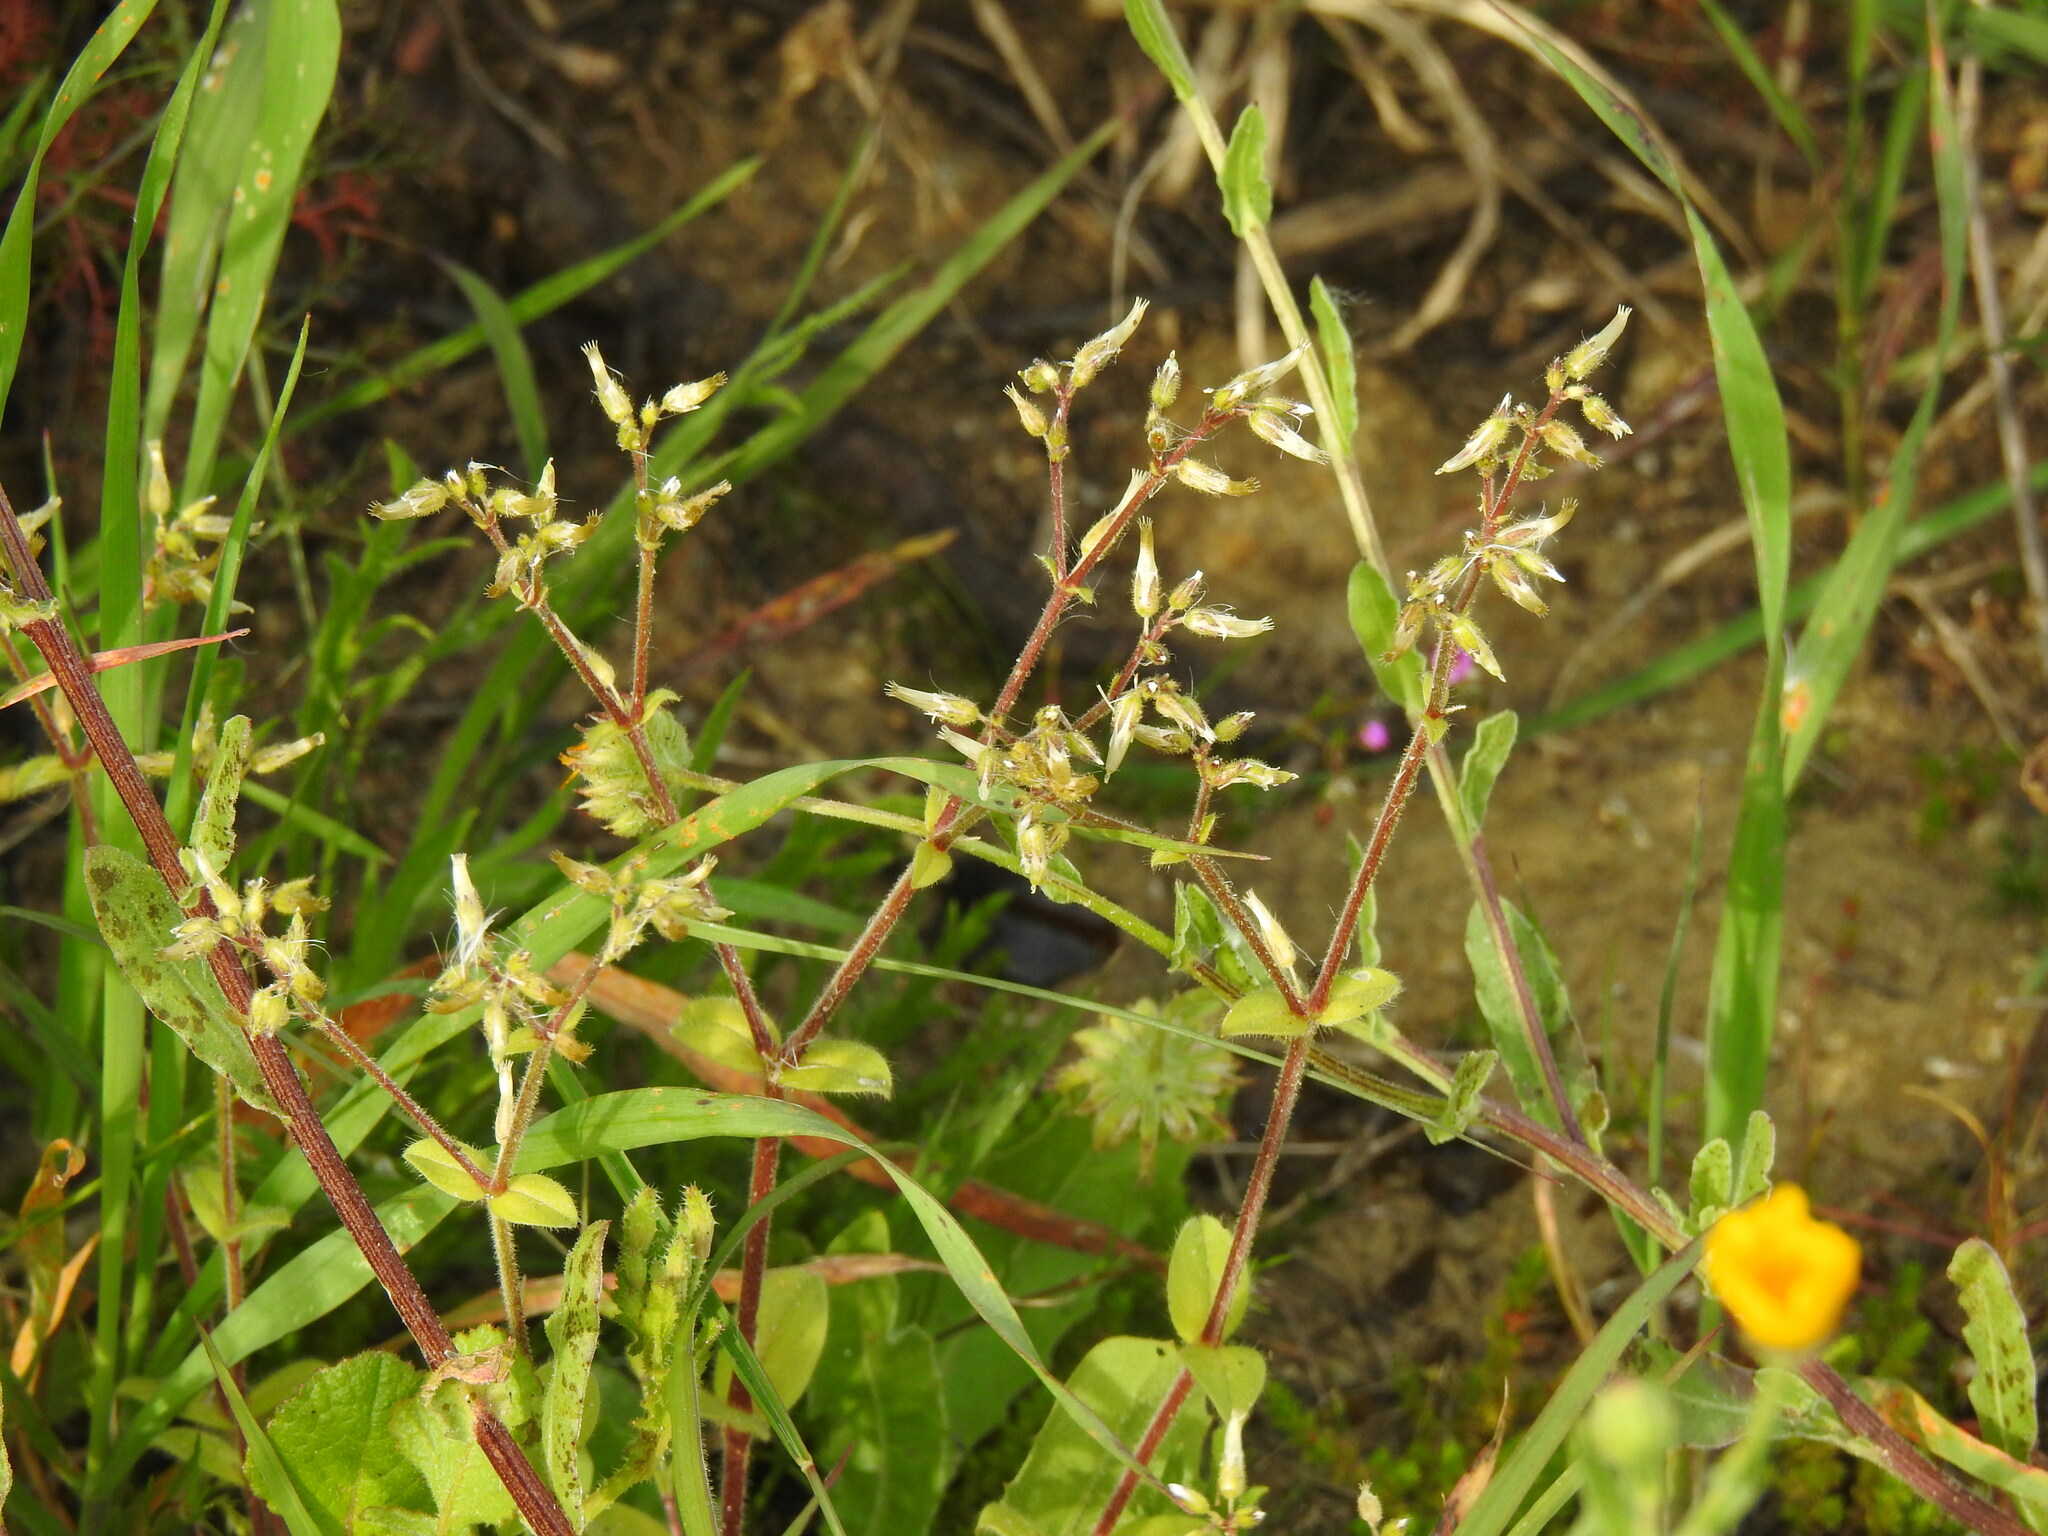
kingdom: Plantae
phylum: Tracheophyta
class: Magnoliopsida
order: Caryophyllales
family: Caryophyllaceae
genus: Cerastium
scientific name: Cerastium glomeratum
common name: Sticky chickweed
